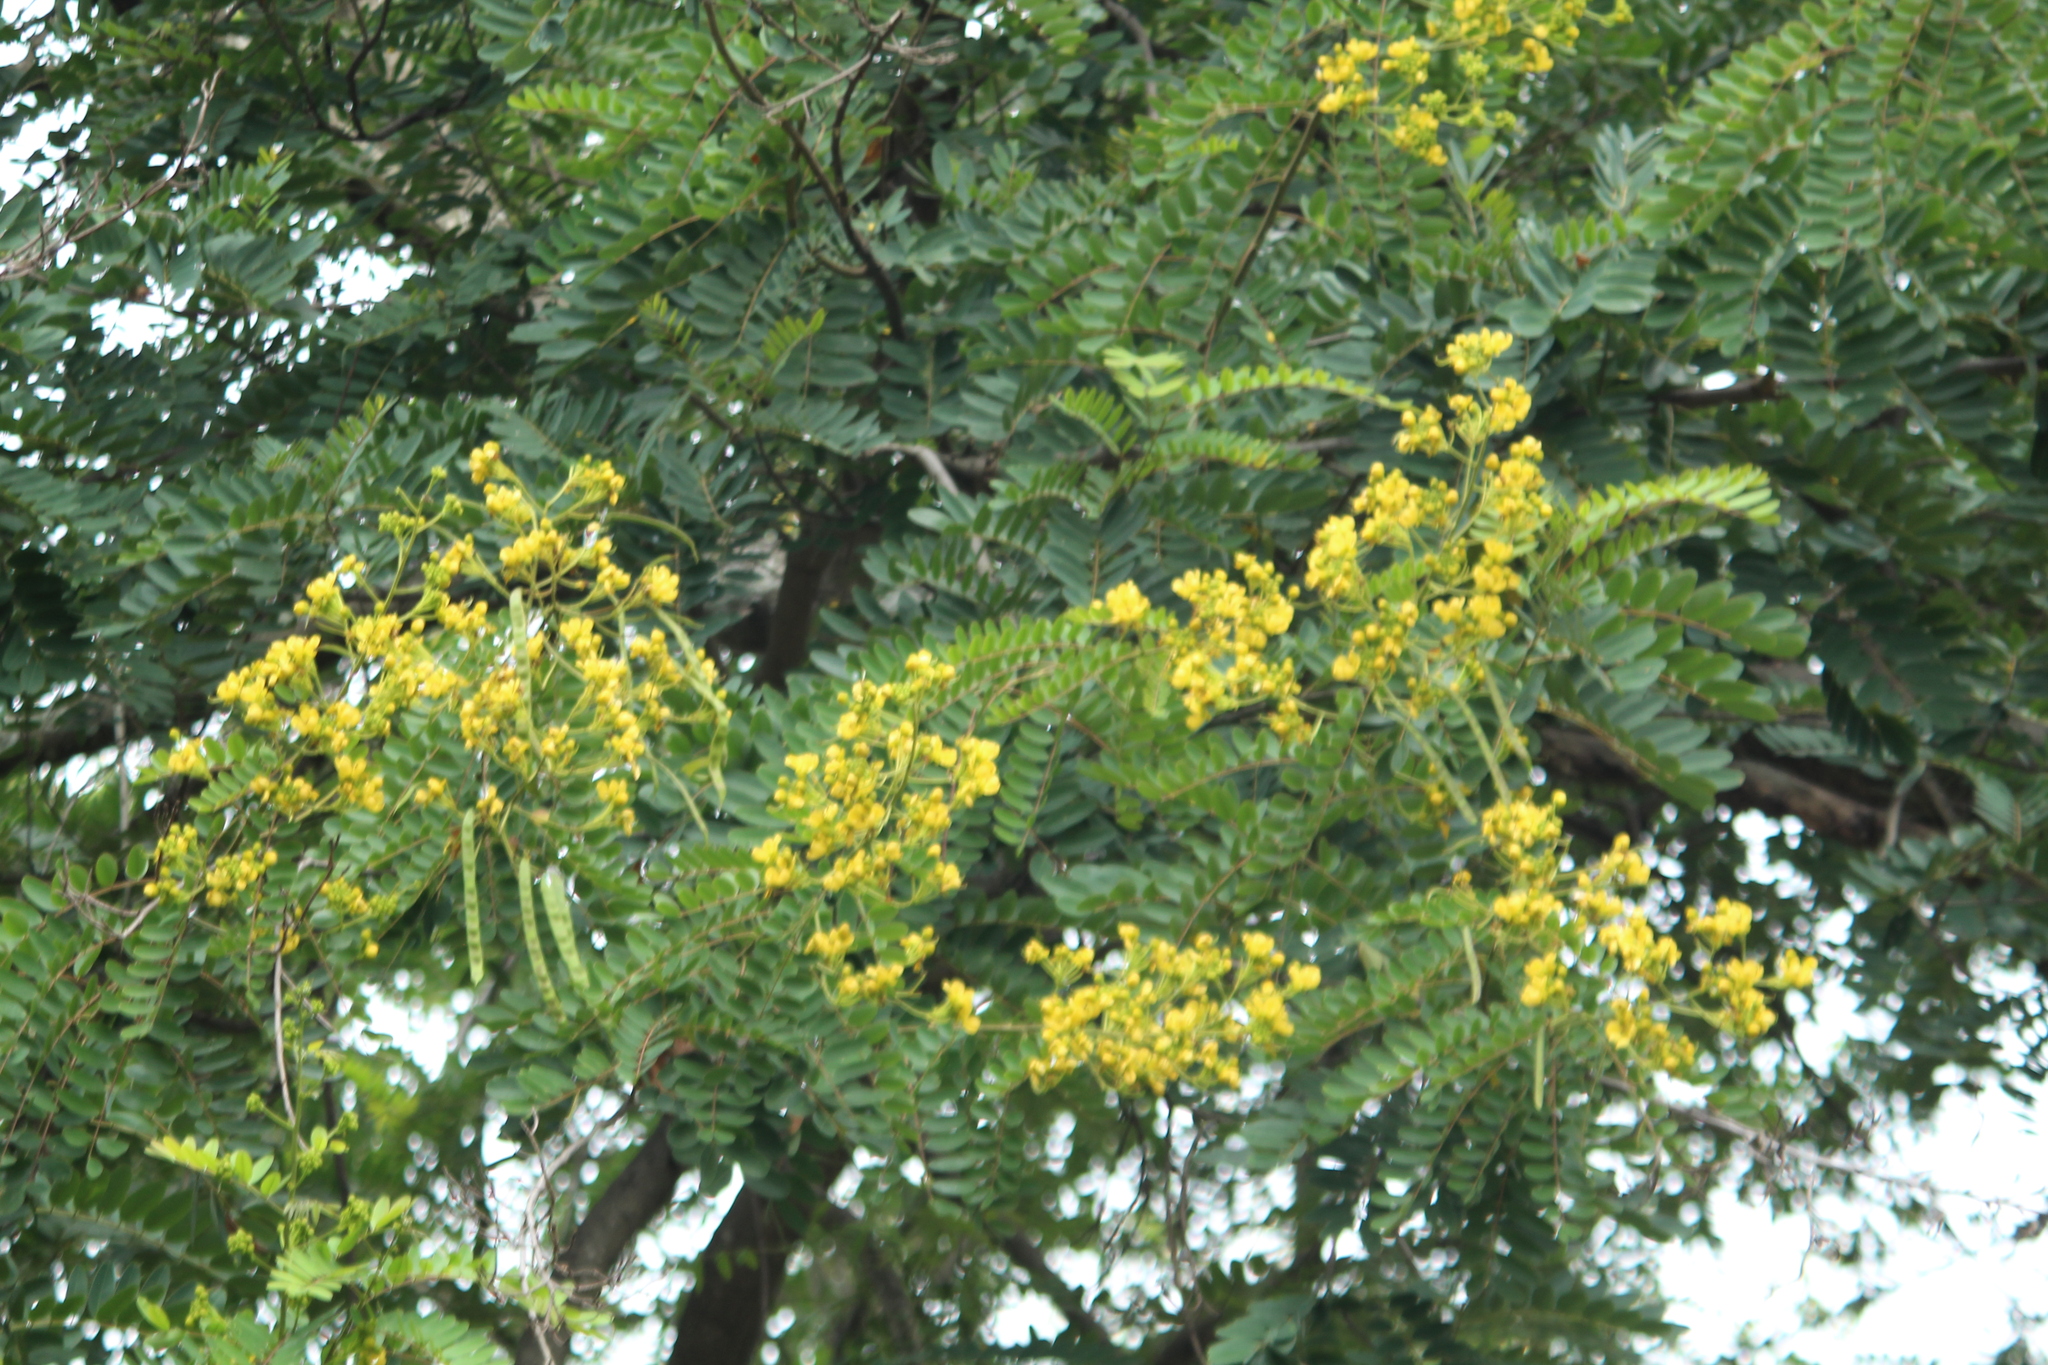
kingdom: Plantae
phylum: Tracheophyta
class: Magnoliopsida
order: Fabales
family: Fabaceae
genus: Senna
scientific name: Senna siamea
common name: Siamese cassia
